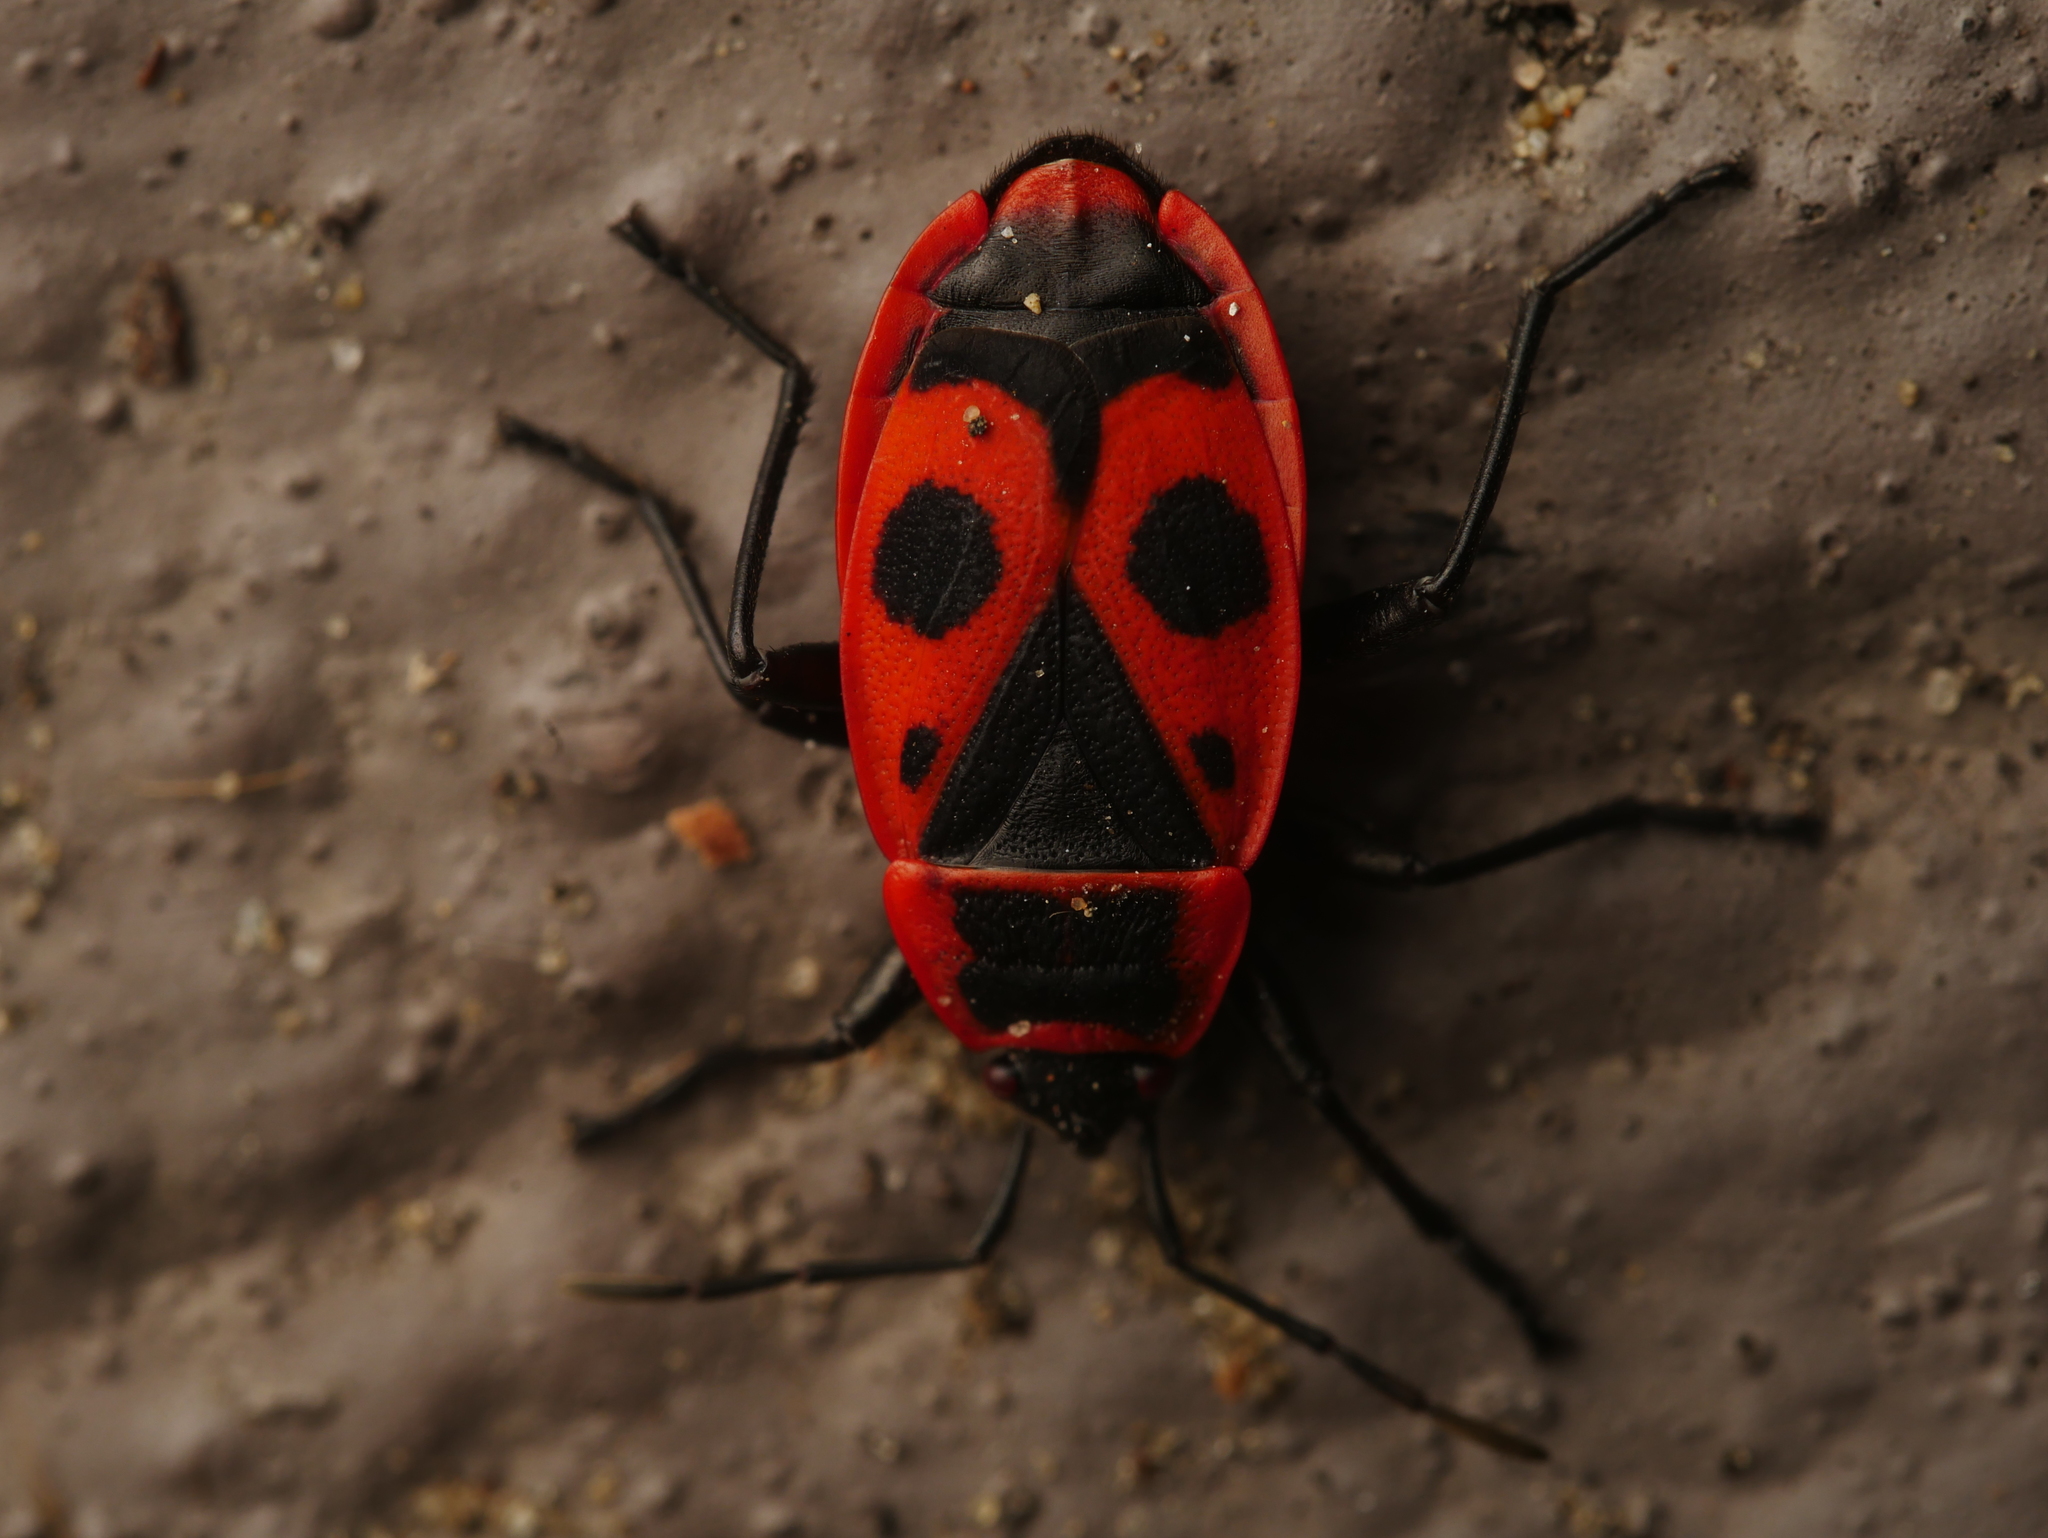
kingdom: Animalia
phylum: Arthropoda
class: Insecta
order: Hemiptera
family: Pyrrhocoridae
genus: Pyrrhocoris
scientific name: Pyrrhocoris apterus
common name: Firebug
